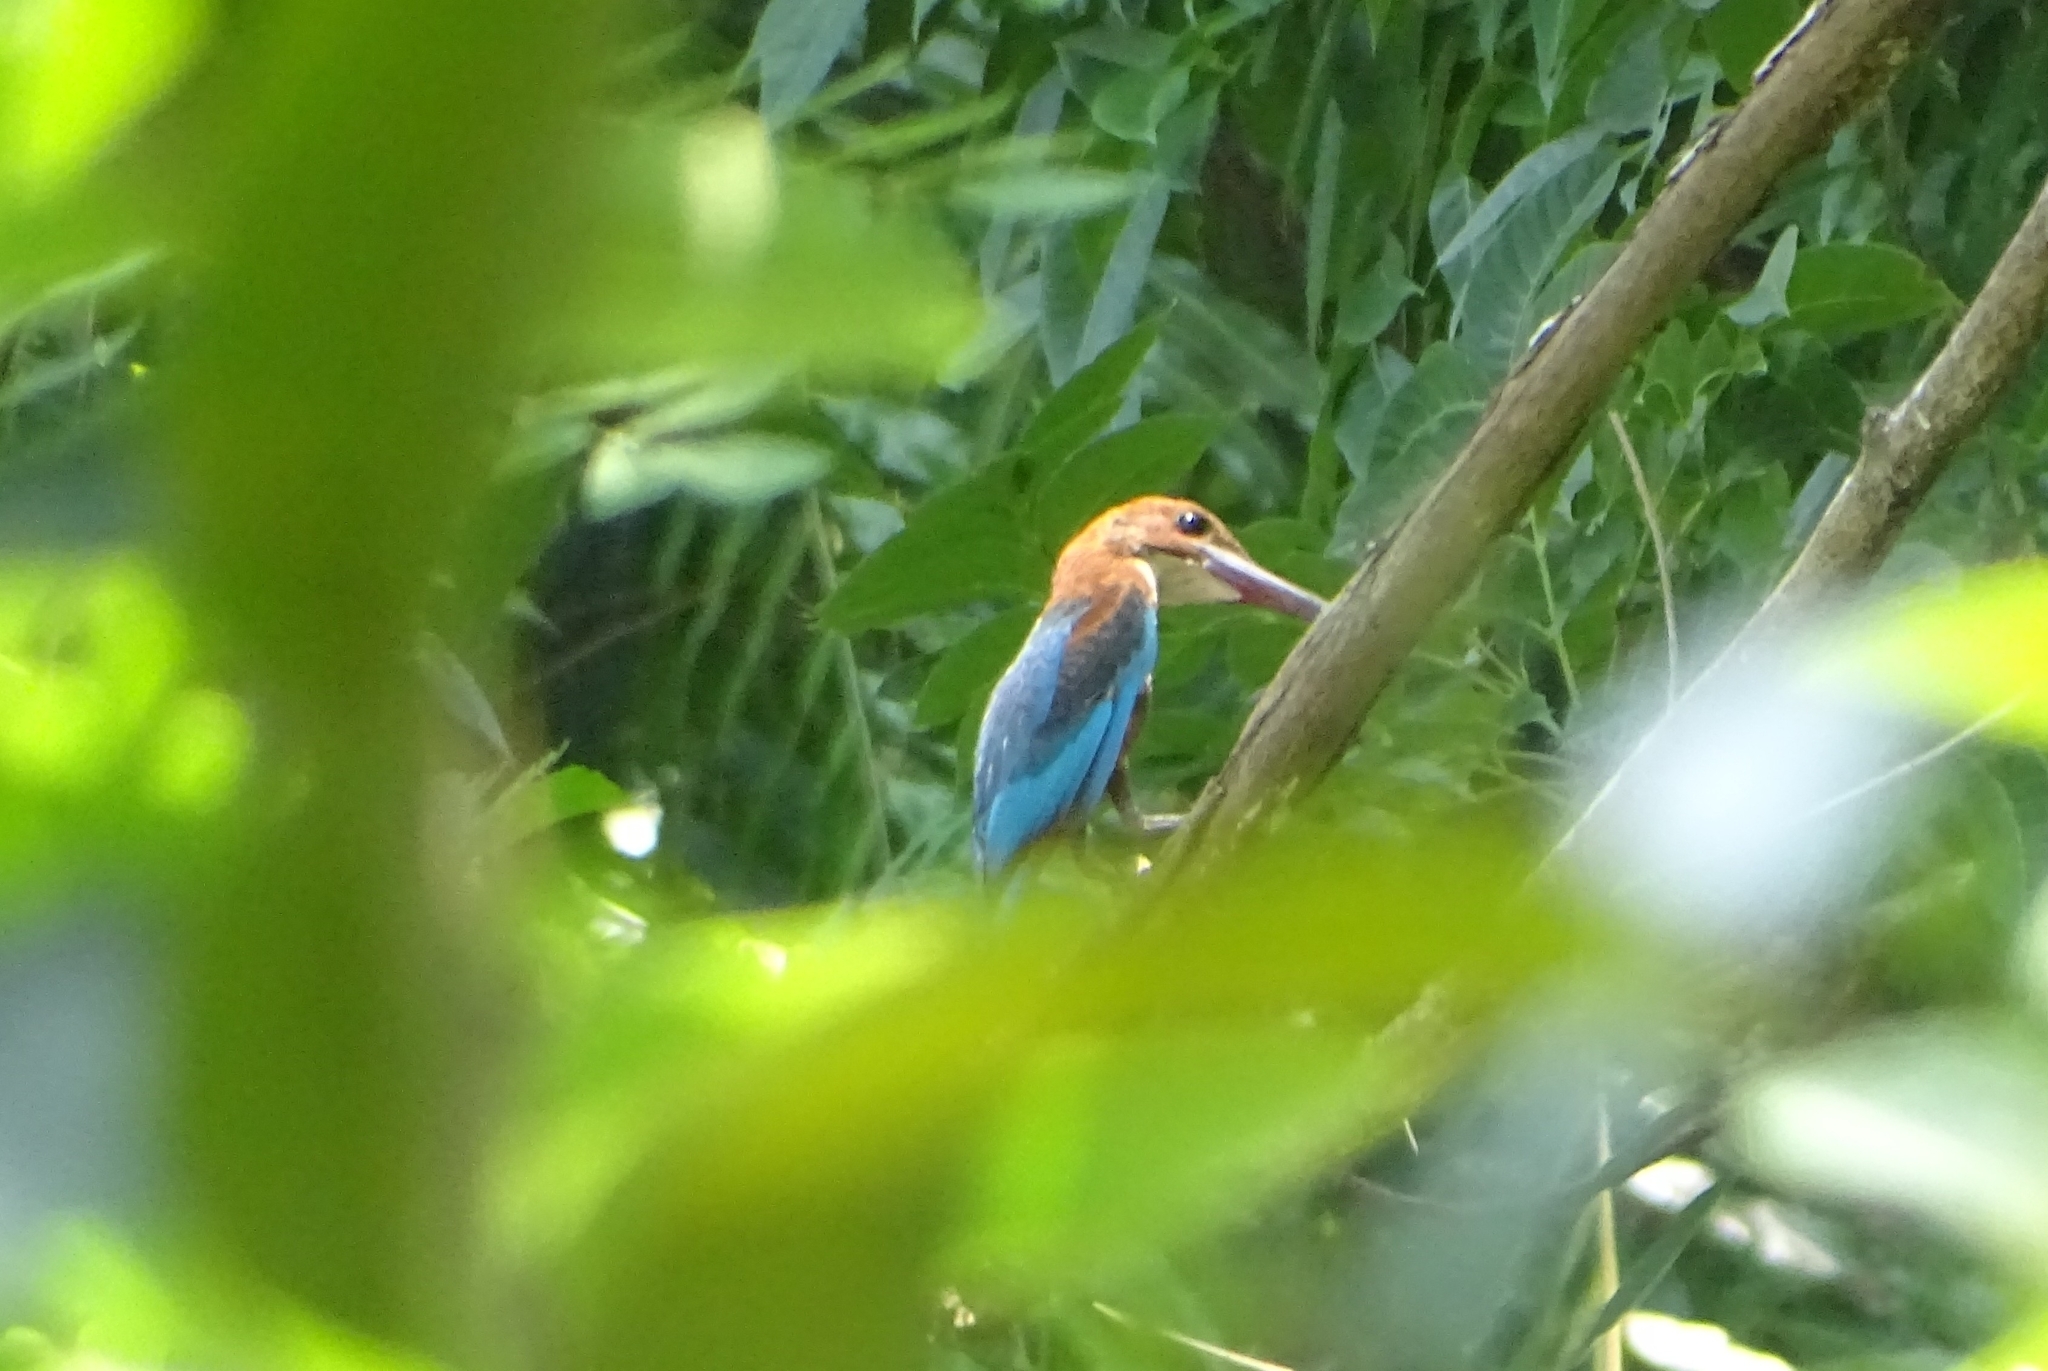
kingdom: Animalia
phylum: Chordata
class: Aves
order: Coraciiformes
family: Alcedinidae
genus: Halcyon
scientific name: Halcyon smyrnensis
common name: White-throated kingfisher
